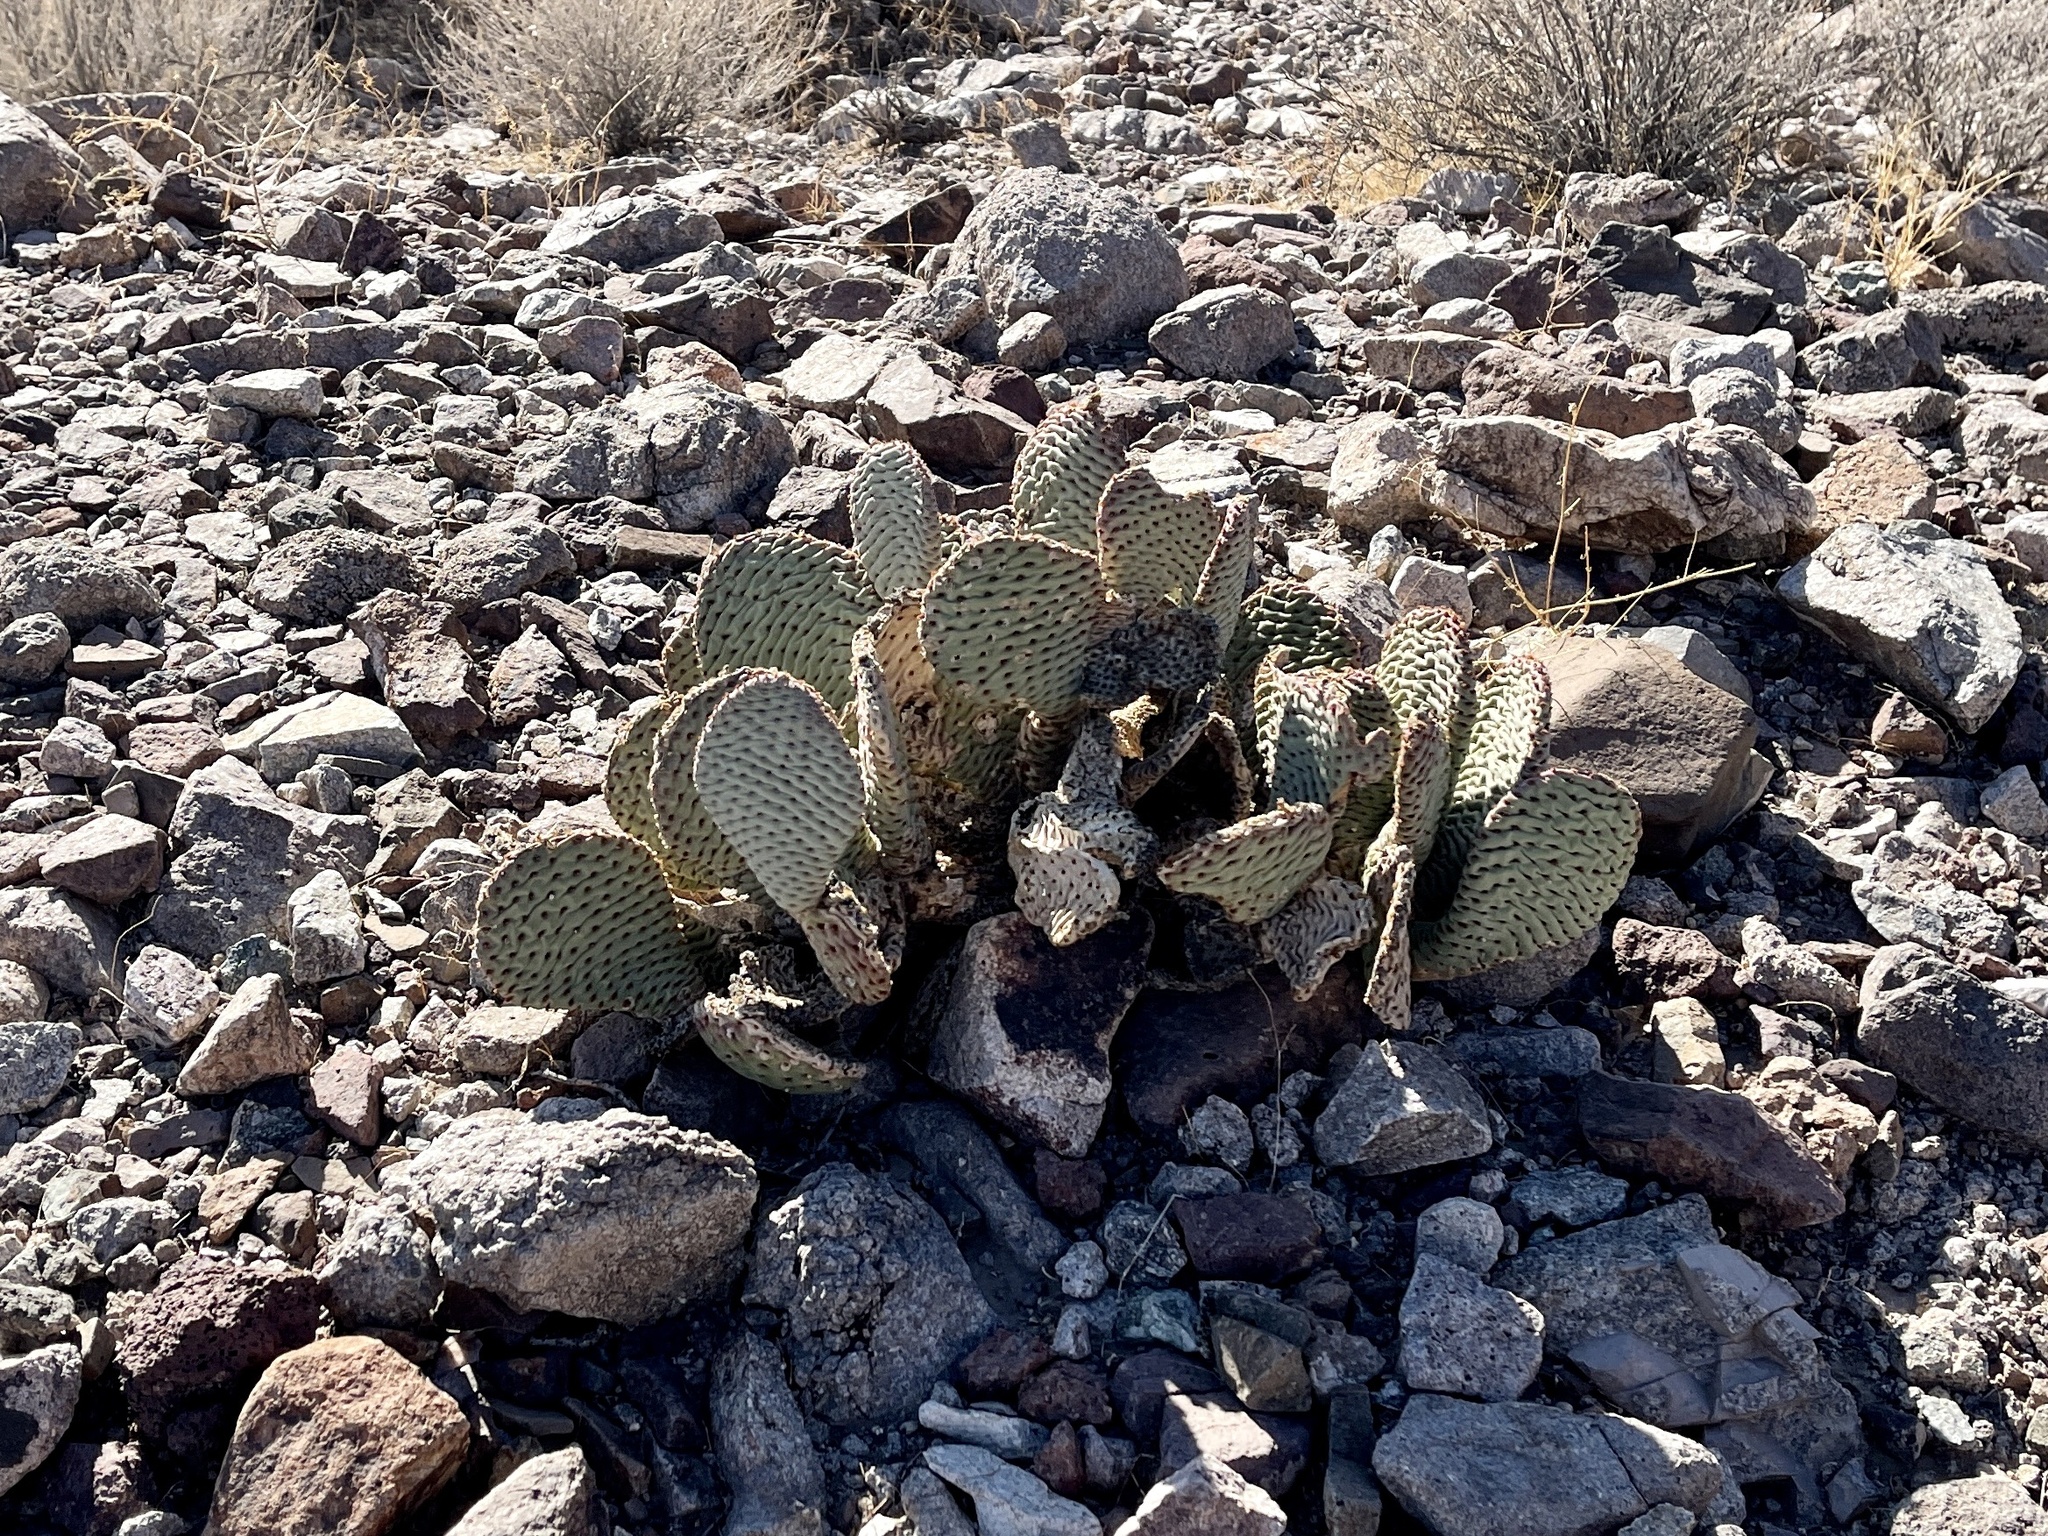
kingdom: Plantae
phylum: Tracheophyta
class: Magnoliopsida
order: Caryophyllales
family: Cactaceae
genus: Opuntia
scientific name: Opuntia basilaris
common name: Beavertail prickly-pear
